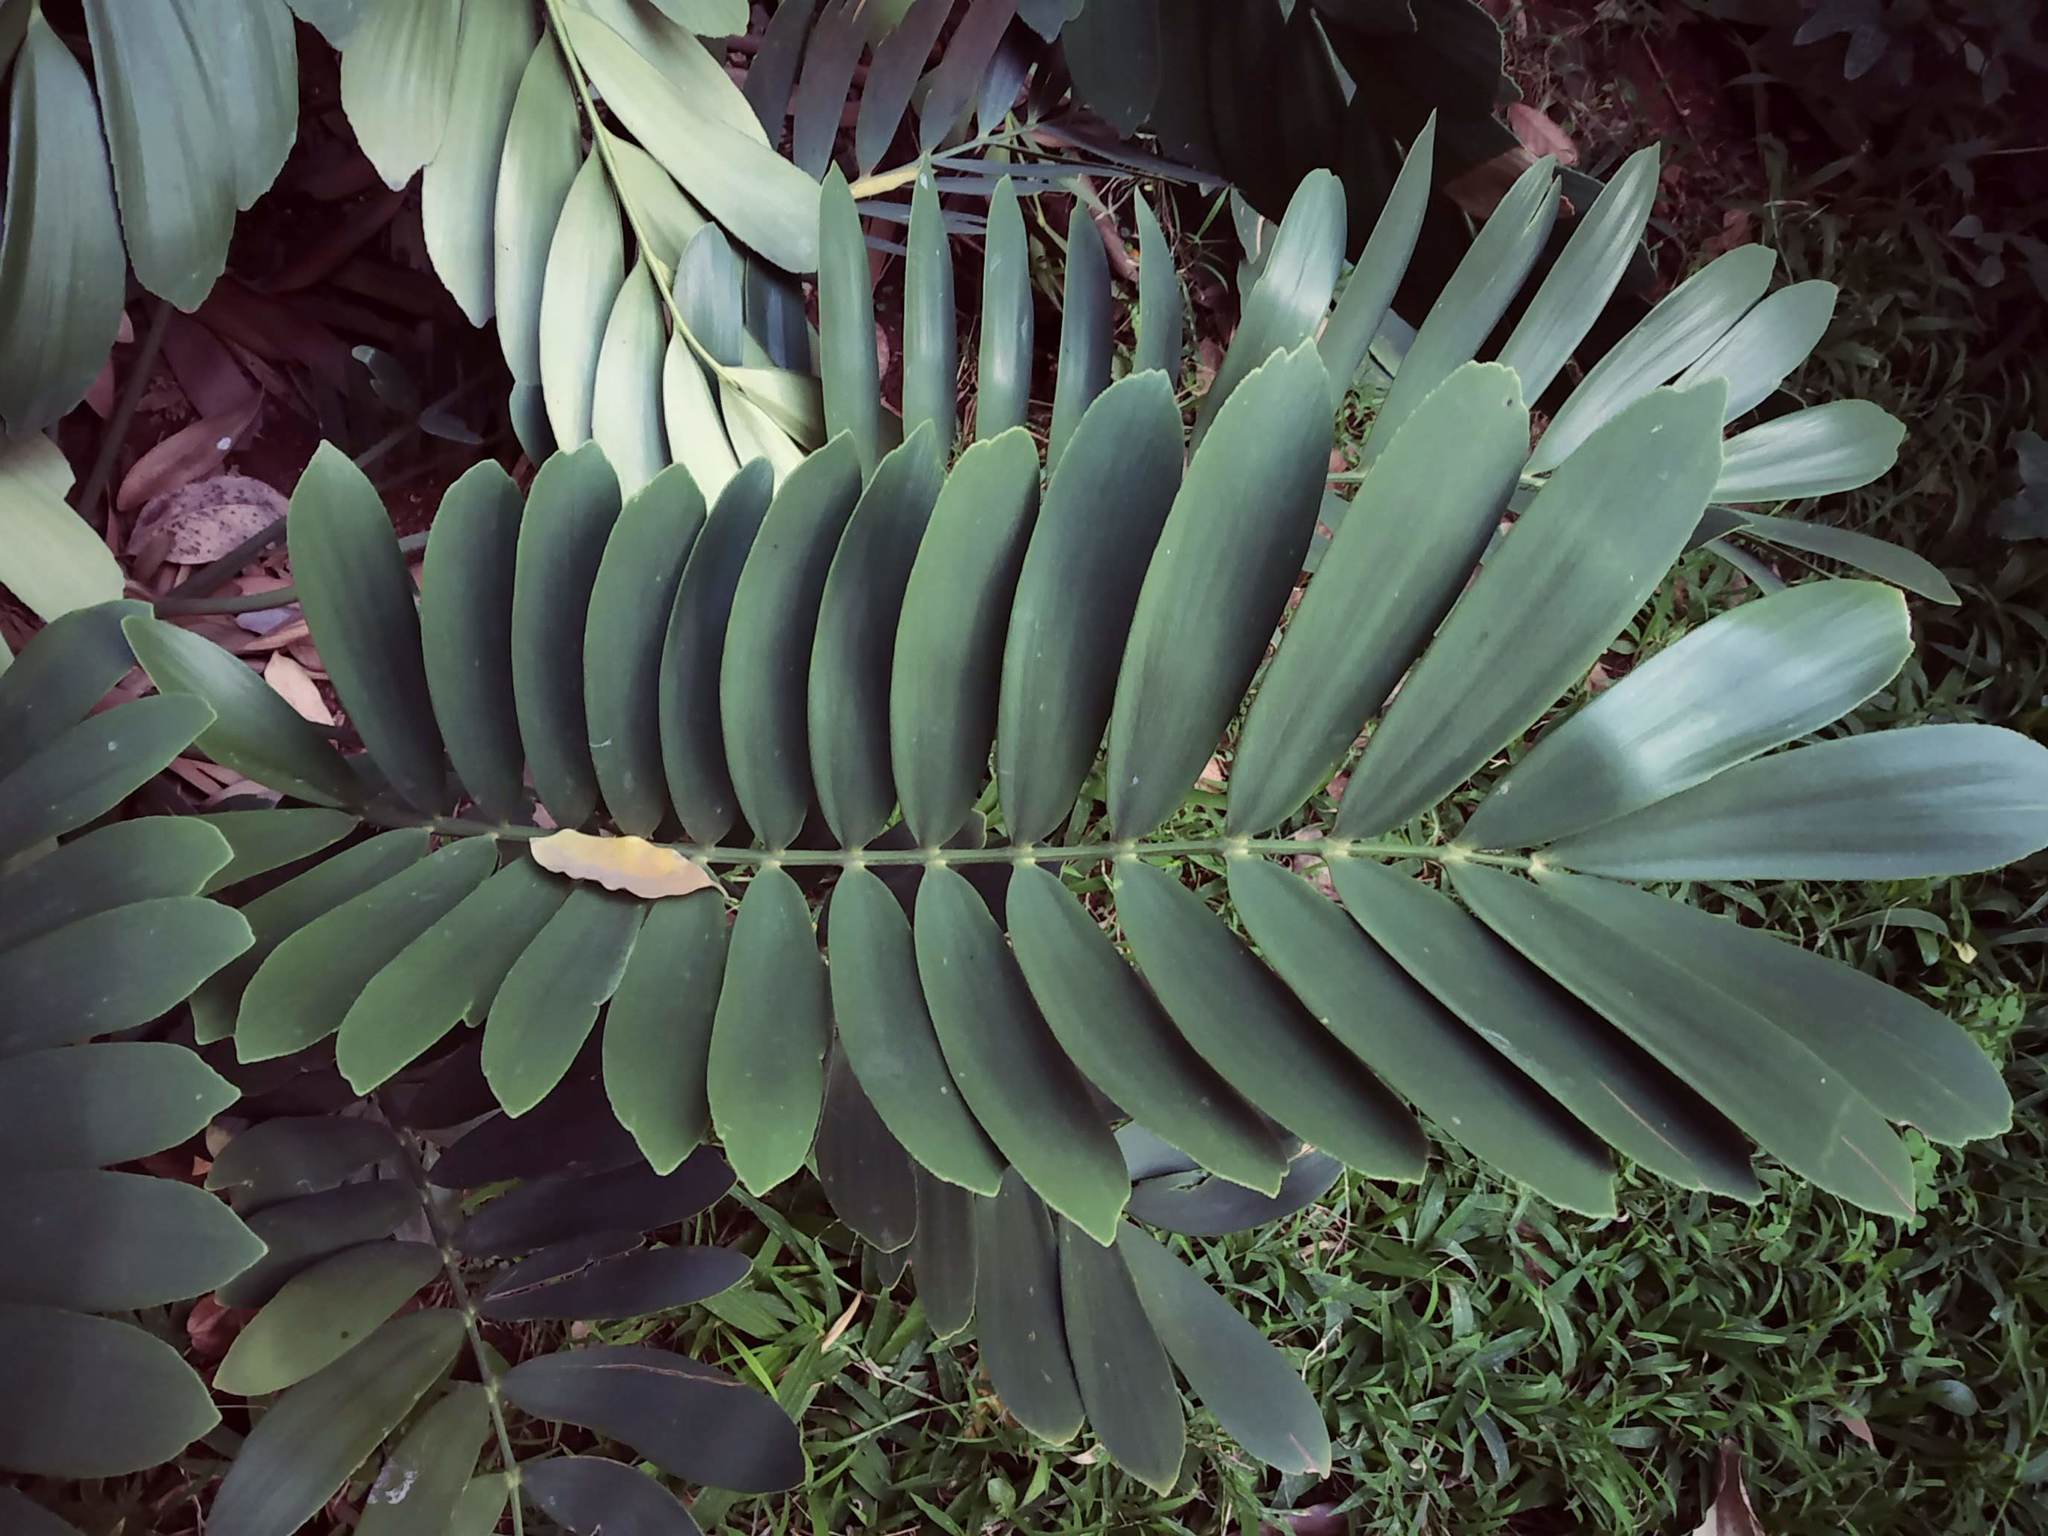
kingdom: Plantae
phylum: Tracheophyta
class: Cycadopsida
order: Cycadales
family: Zamiaceae
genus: Zamia
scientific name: Zamia furfuracea
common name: Cardboard palm
